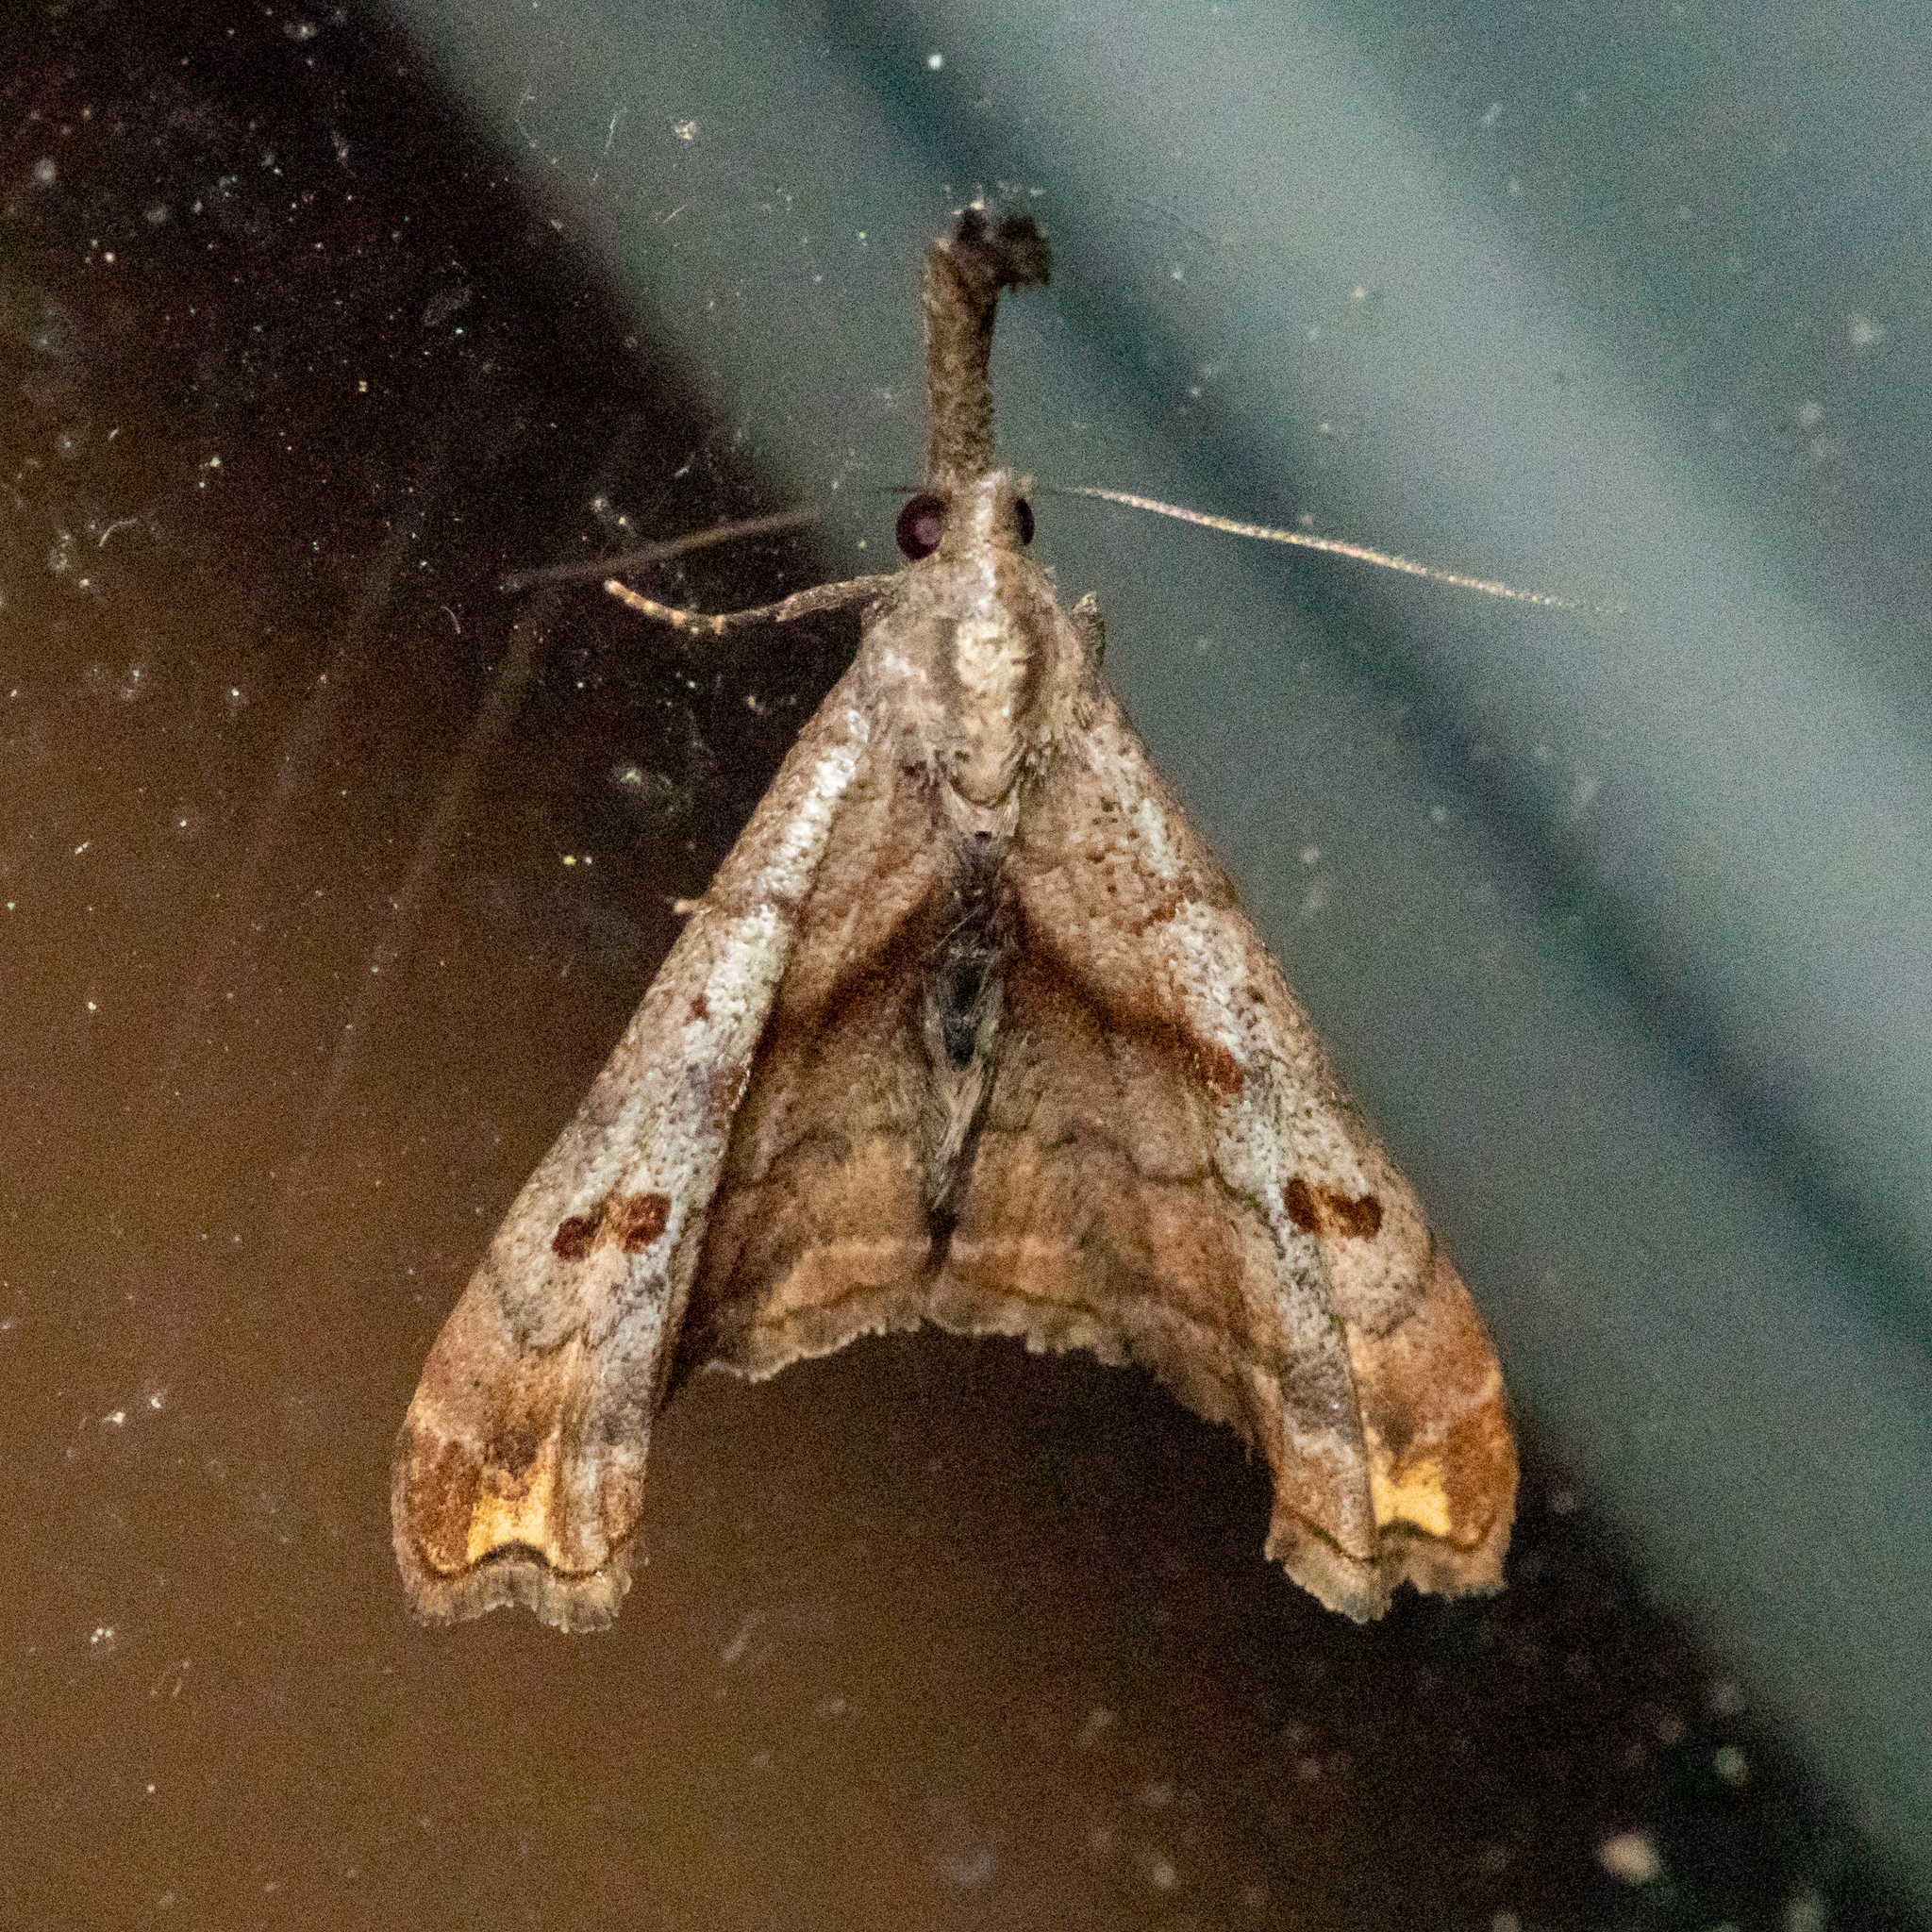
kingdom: Animalia
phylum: Arthropoda
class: Insecta
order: Lepidoptera
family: Erebidae
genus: Palthis
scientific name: Palthis angulalis
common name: Dark-spotted palthis moth
